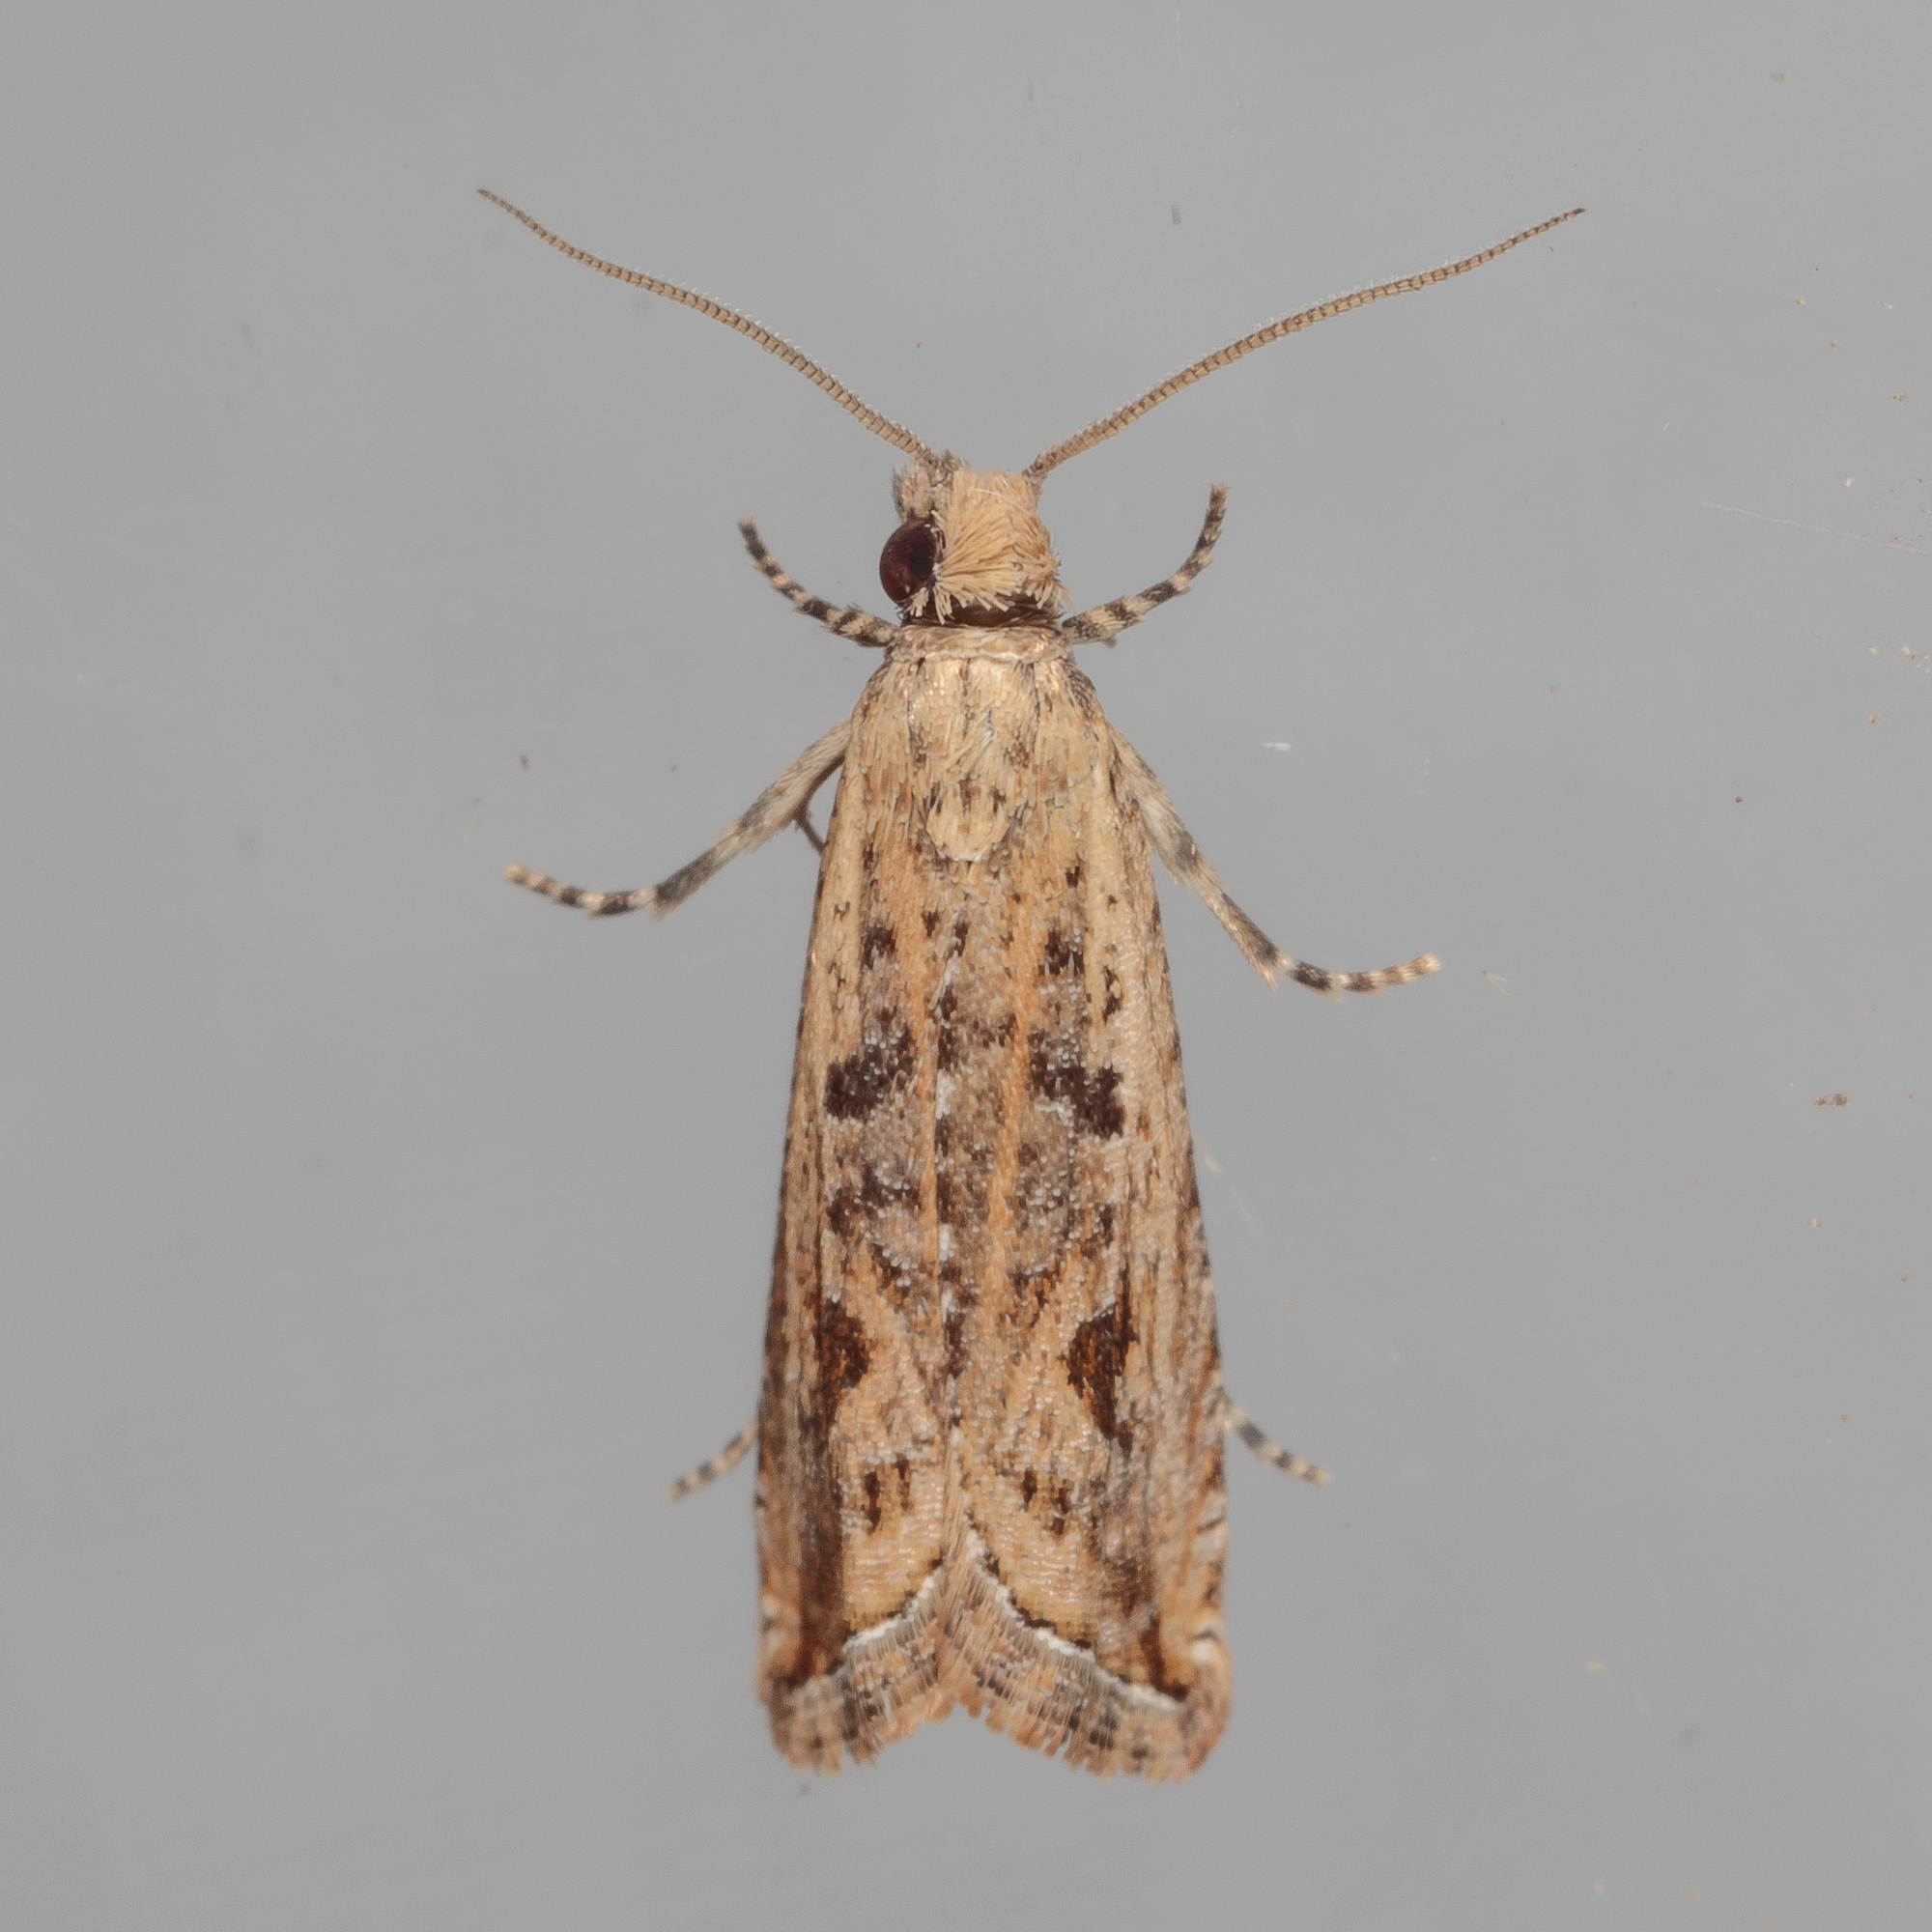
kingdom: Animalia
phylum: Arthropoda
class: Insecta
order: Lepidoptera
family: Tortricidae
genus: Bactra
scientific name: Bactra verutana
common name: Javelin moth
